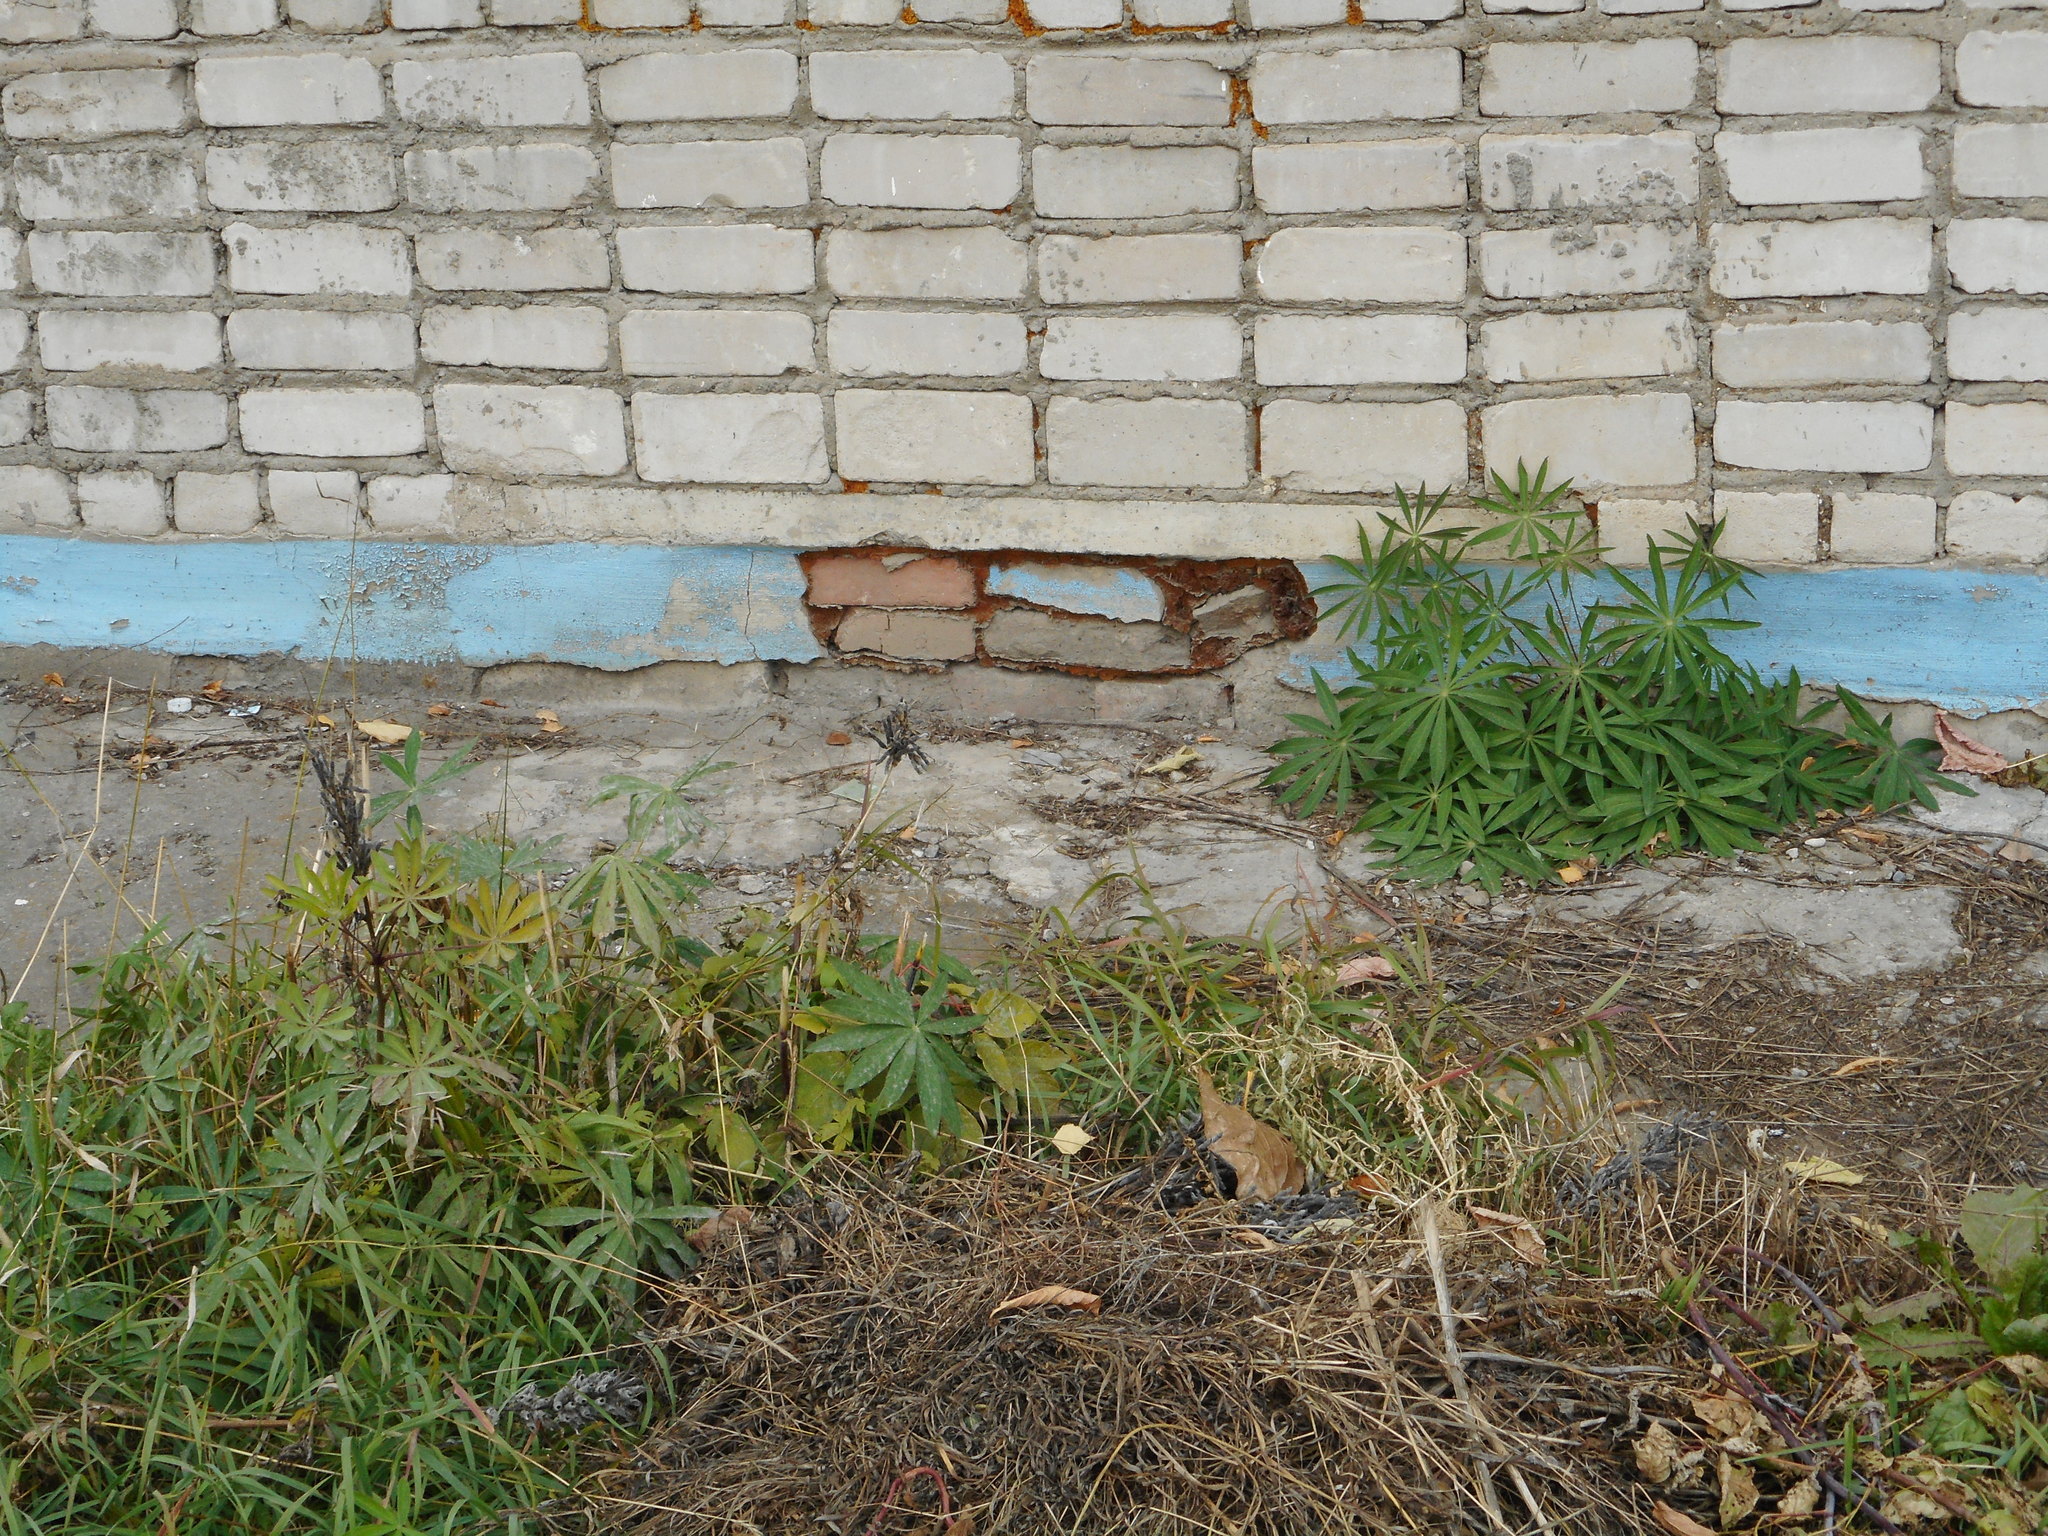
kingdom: Plantae
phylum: Tracheophyta
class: Magnoliopsida
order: Fabales
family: Fabaceae
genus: Lupinus
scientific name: Lupinus polyphyllus
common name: Garden lupin
